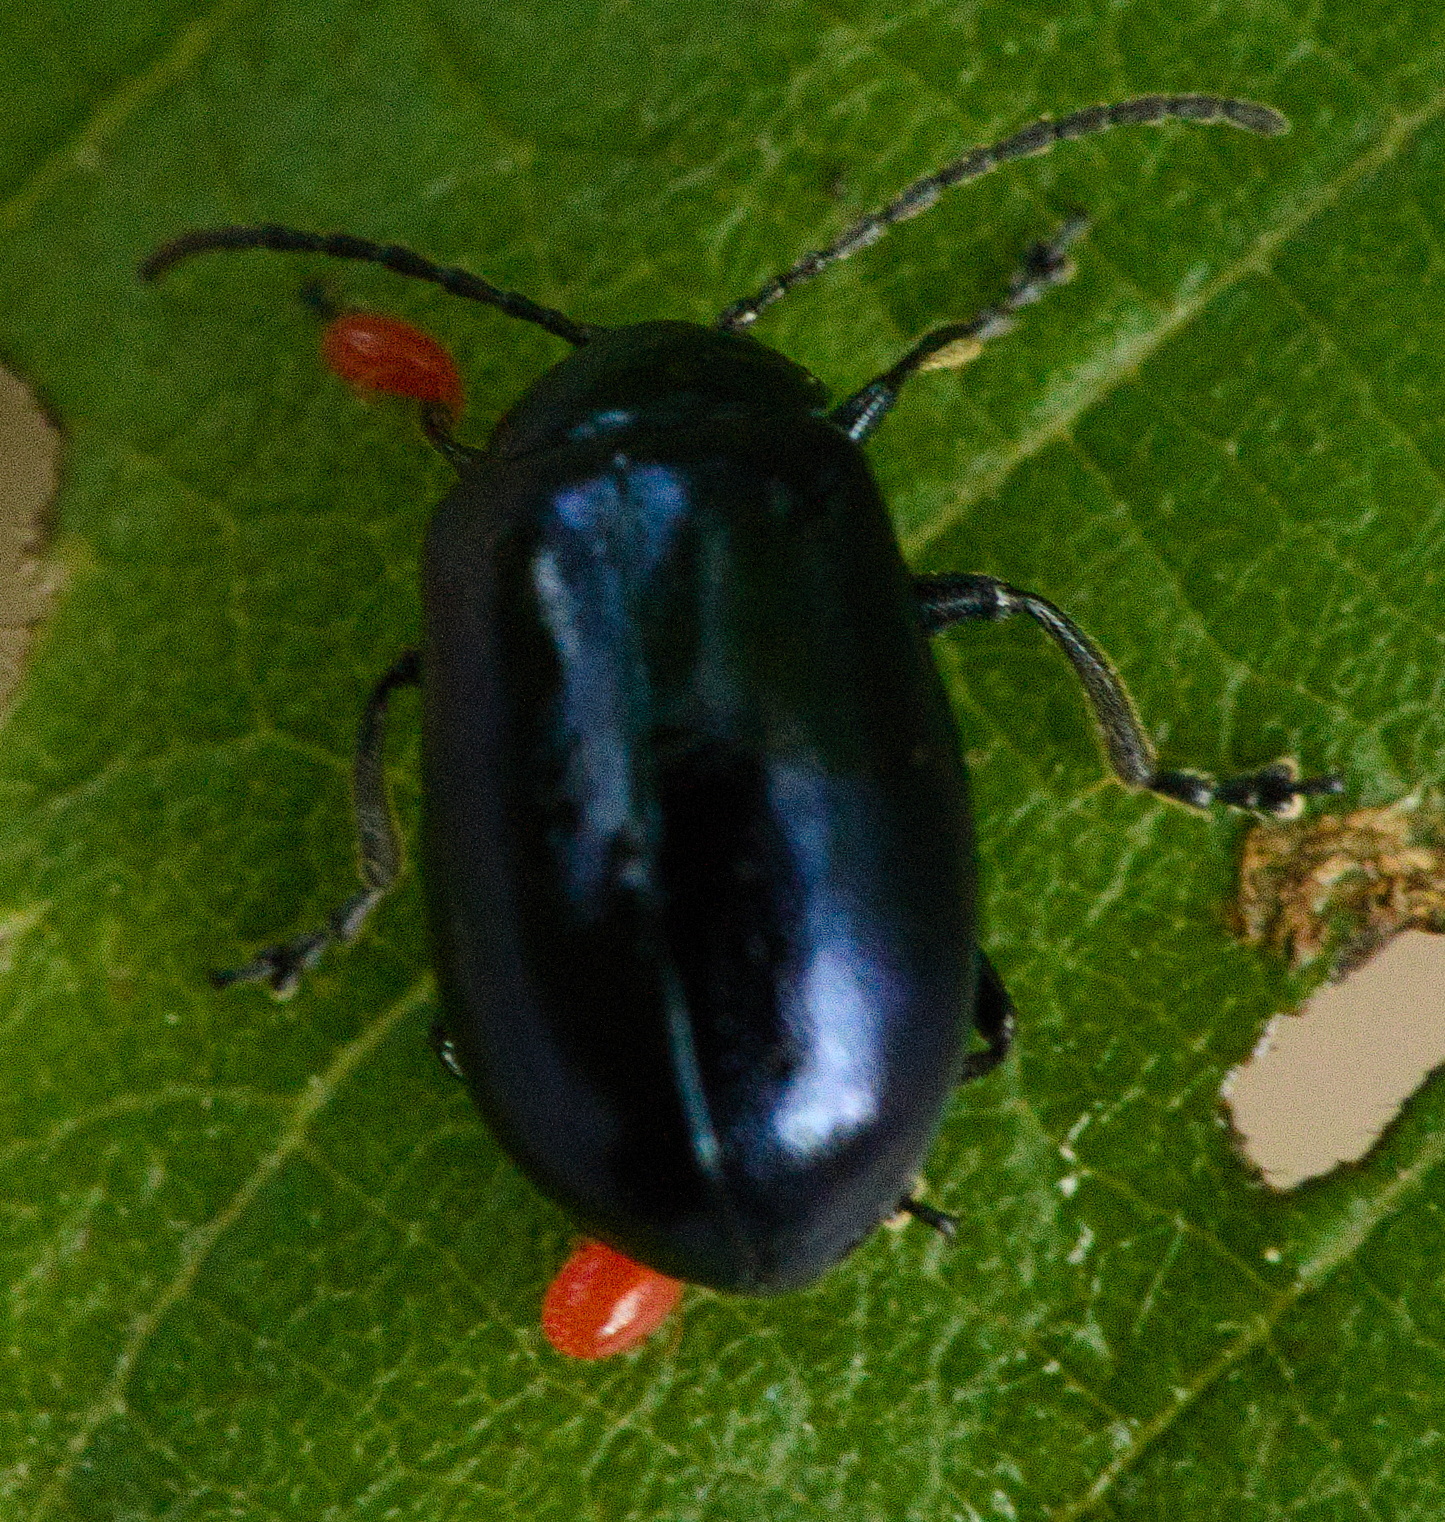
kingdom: Animalia
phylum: Arthropoda
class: Insecta
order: Coleoptera
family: Chrysomelidae
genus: Agelastica
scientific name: Agelastica alni
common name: Alder leaf beetle
